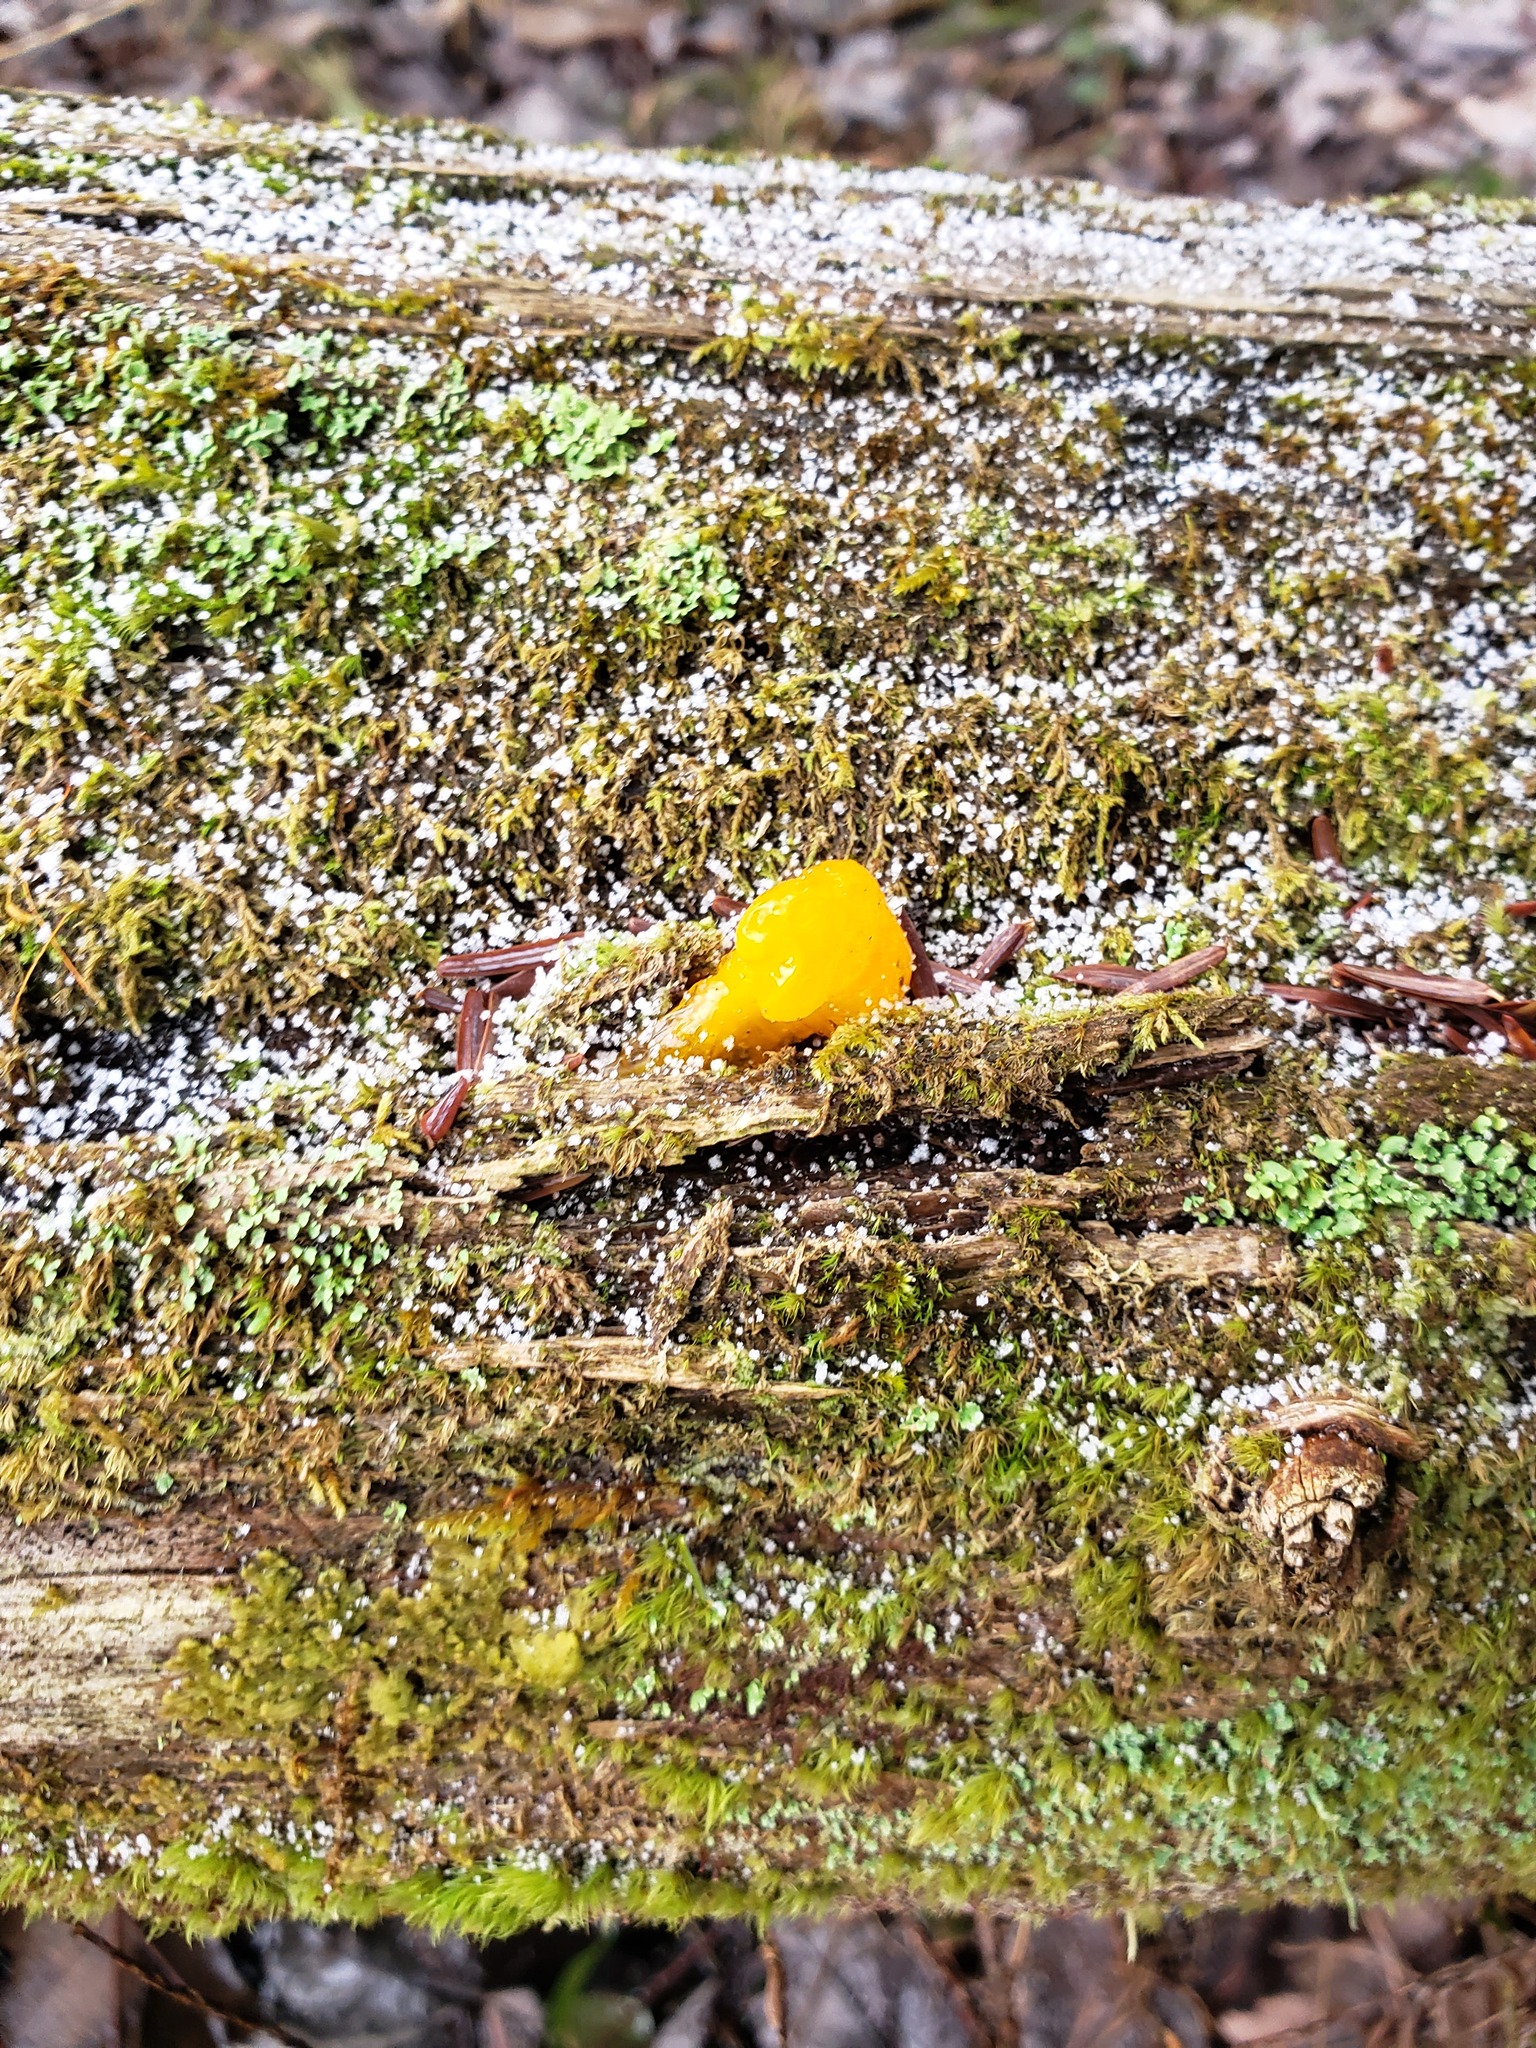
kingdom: Fungi
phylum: Basidiomycota
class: Dacrymycetes
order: Dacrymycetales
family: Dacrymycetaceae
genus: Dacrymyces
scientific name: Dacrymyces chrysospermus
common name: Orange jelly spot
